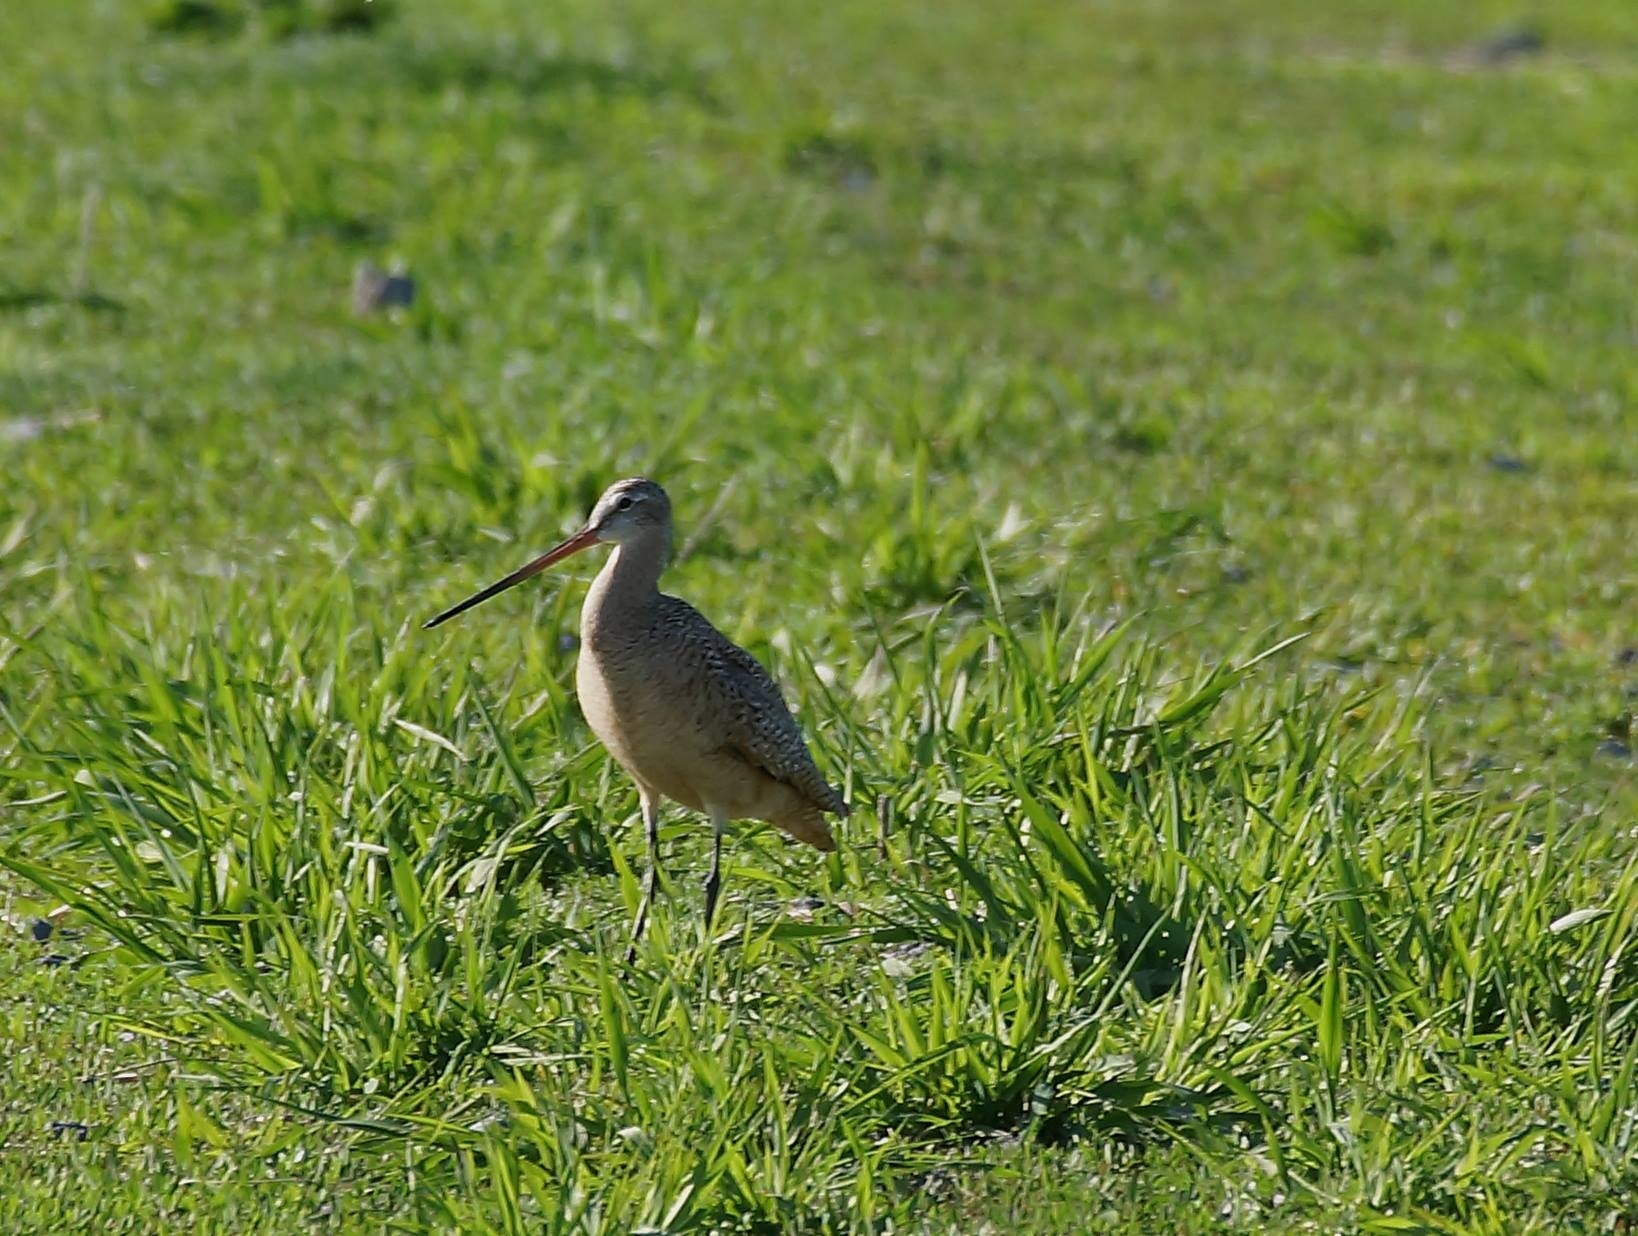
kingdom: Animalia
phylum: Chordata
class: Aves
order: Charadriiformes
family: Scolopacidae
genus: Limosa
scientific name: Limosa fedoa
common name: Marbled godwit
